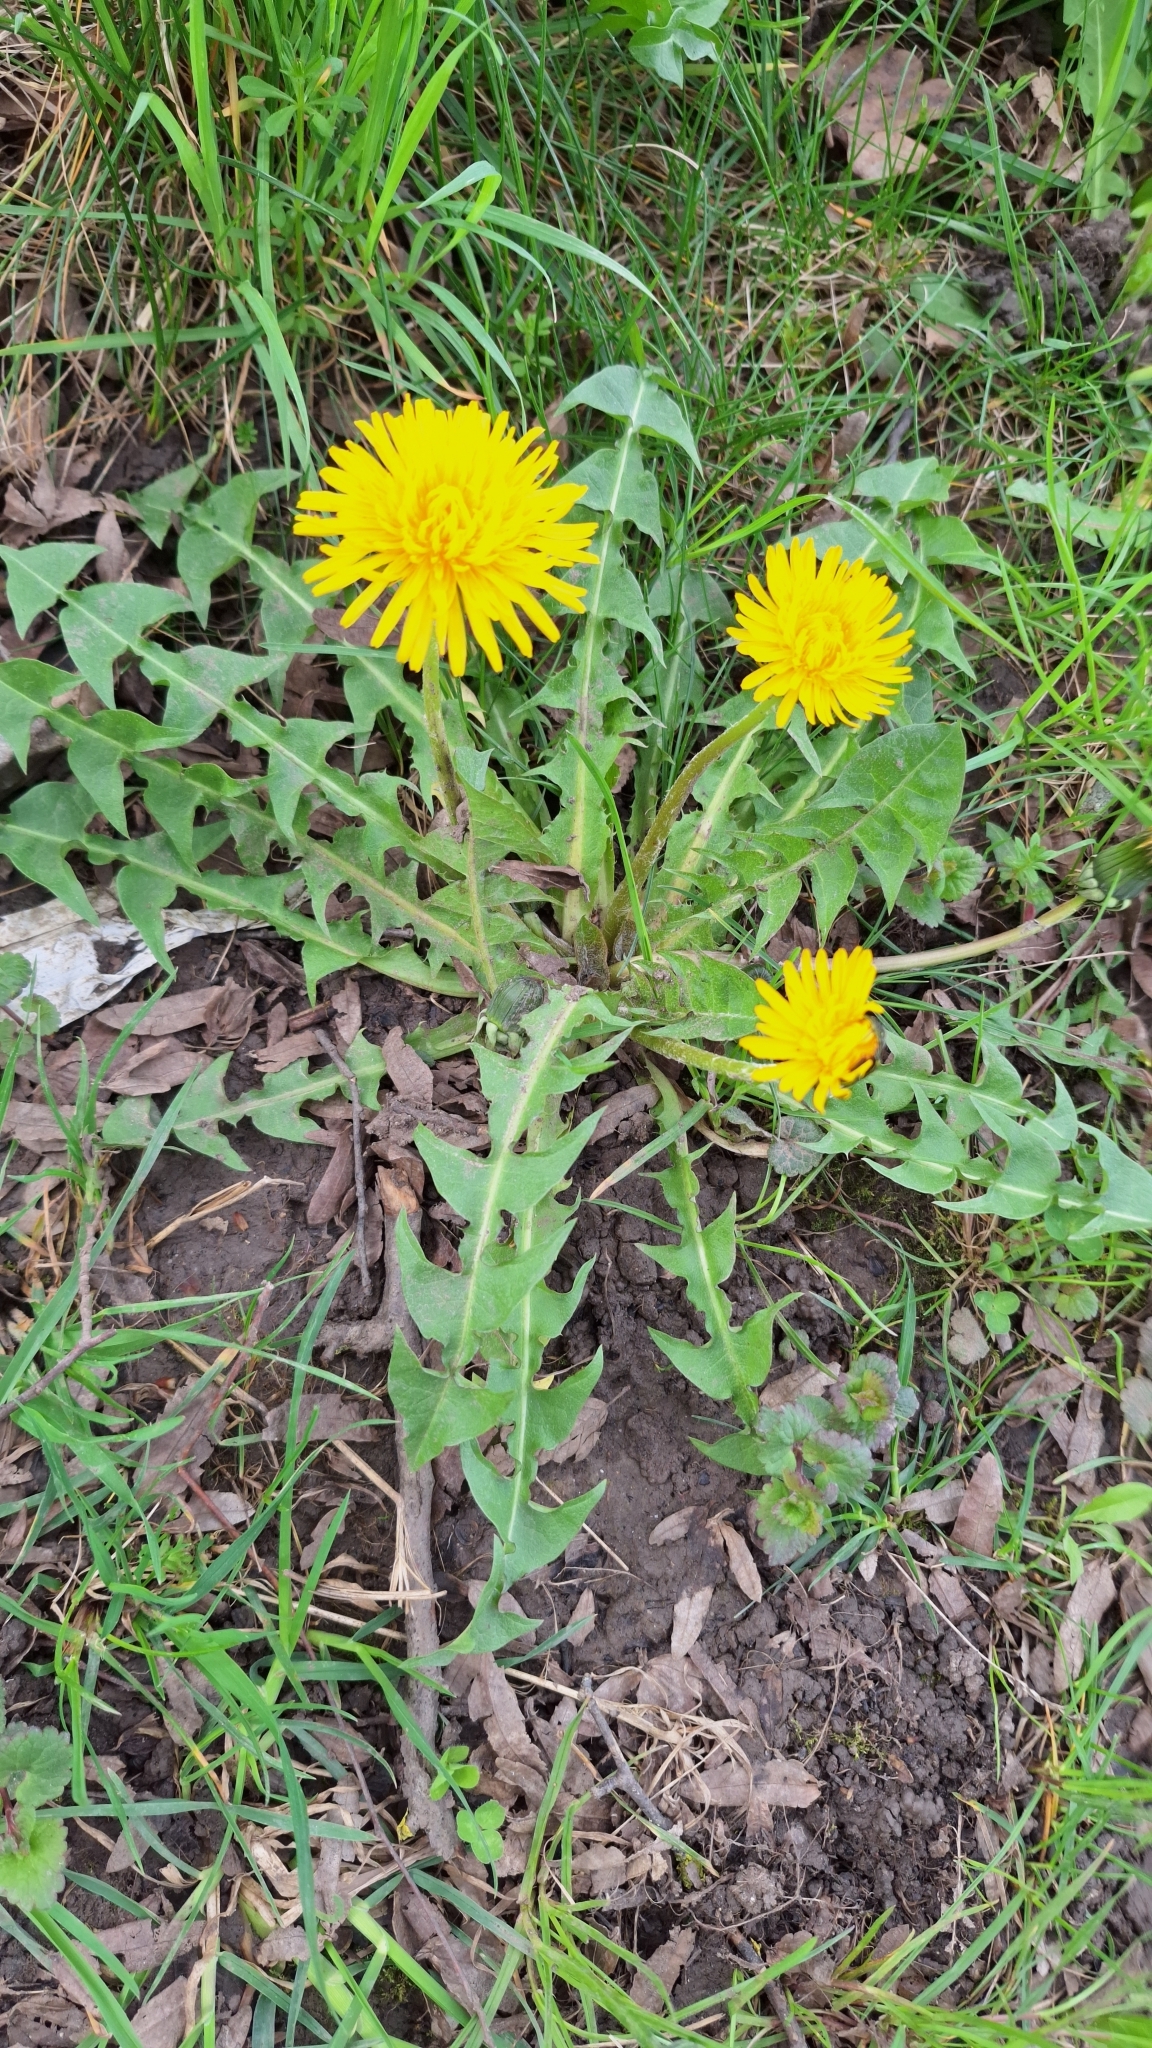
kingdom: Plantae
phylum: Tracheophyta
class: Magnoliopsida
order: Asterales
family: Asteraceae
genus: Taraxacum
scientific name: Taraxacum officinale
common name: Common dandelion
